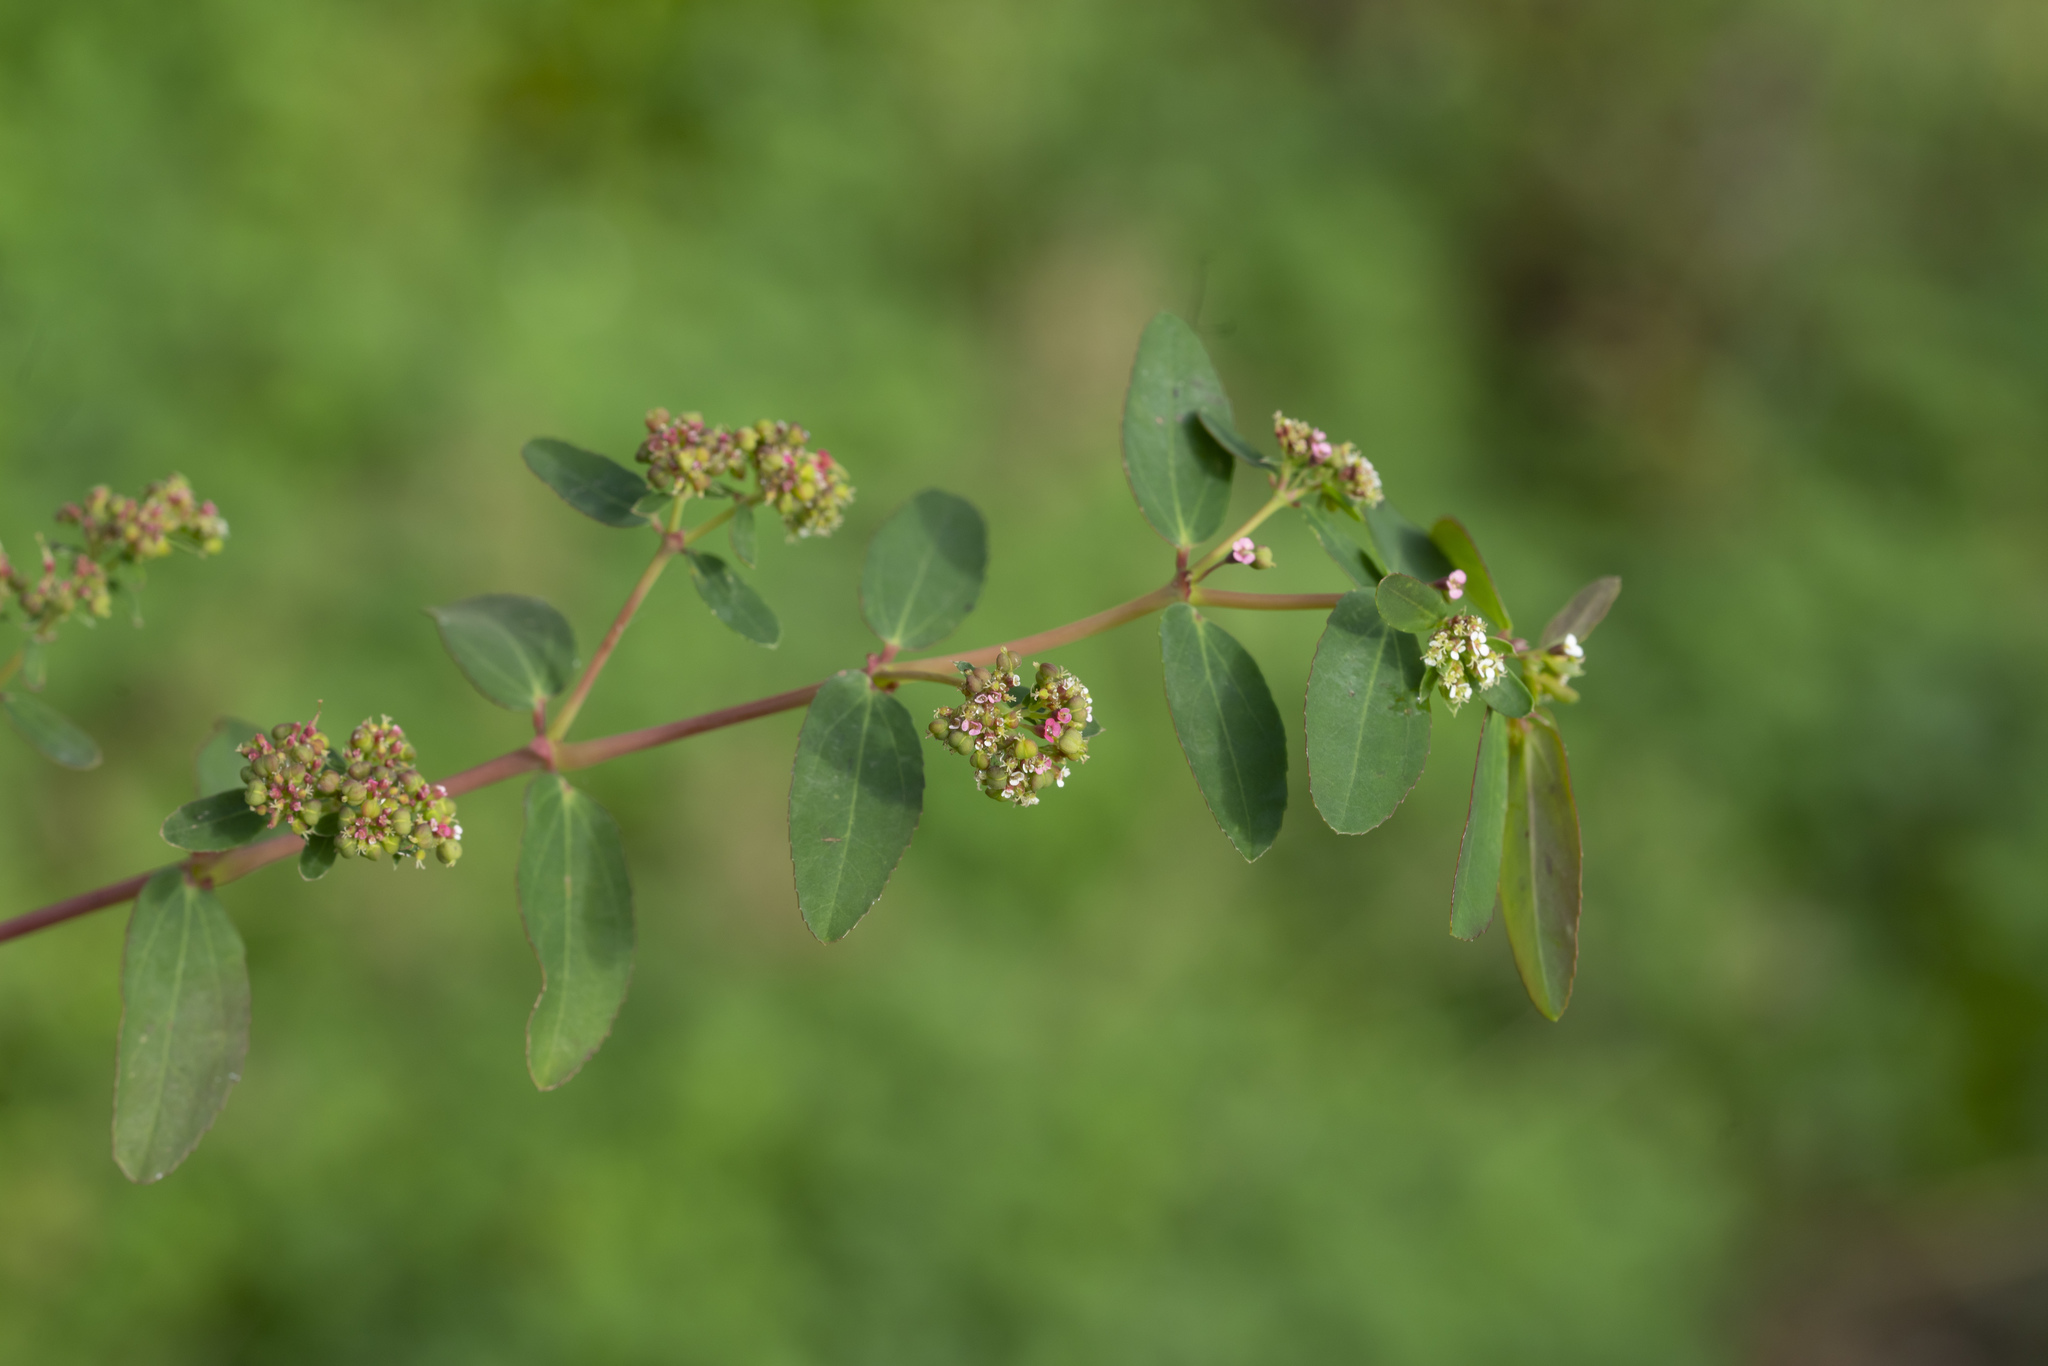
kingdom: Plantae
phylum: Tracheophyta
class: Magnoliopsida
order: Malpighiales
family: Euphorbiaceae
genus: Euphorbia
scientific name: Euphorbia hypericifolia
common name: Graceful sandmat
